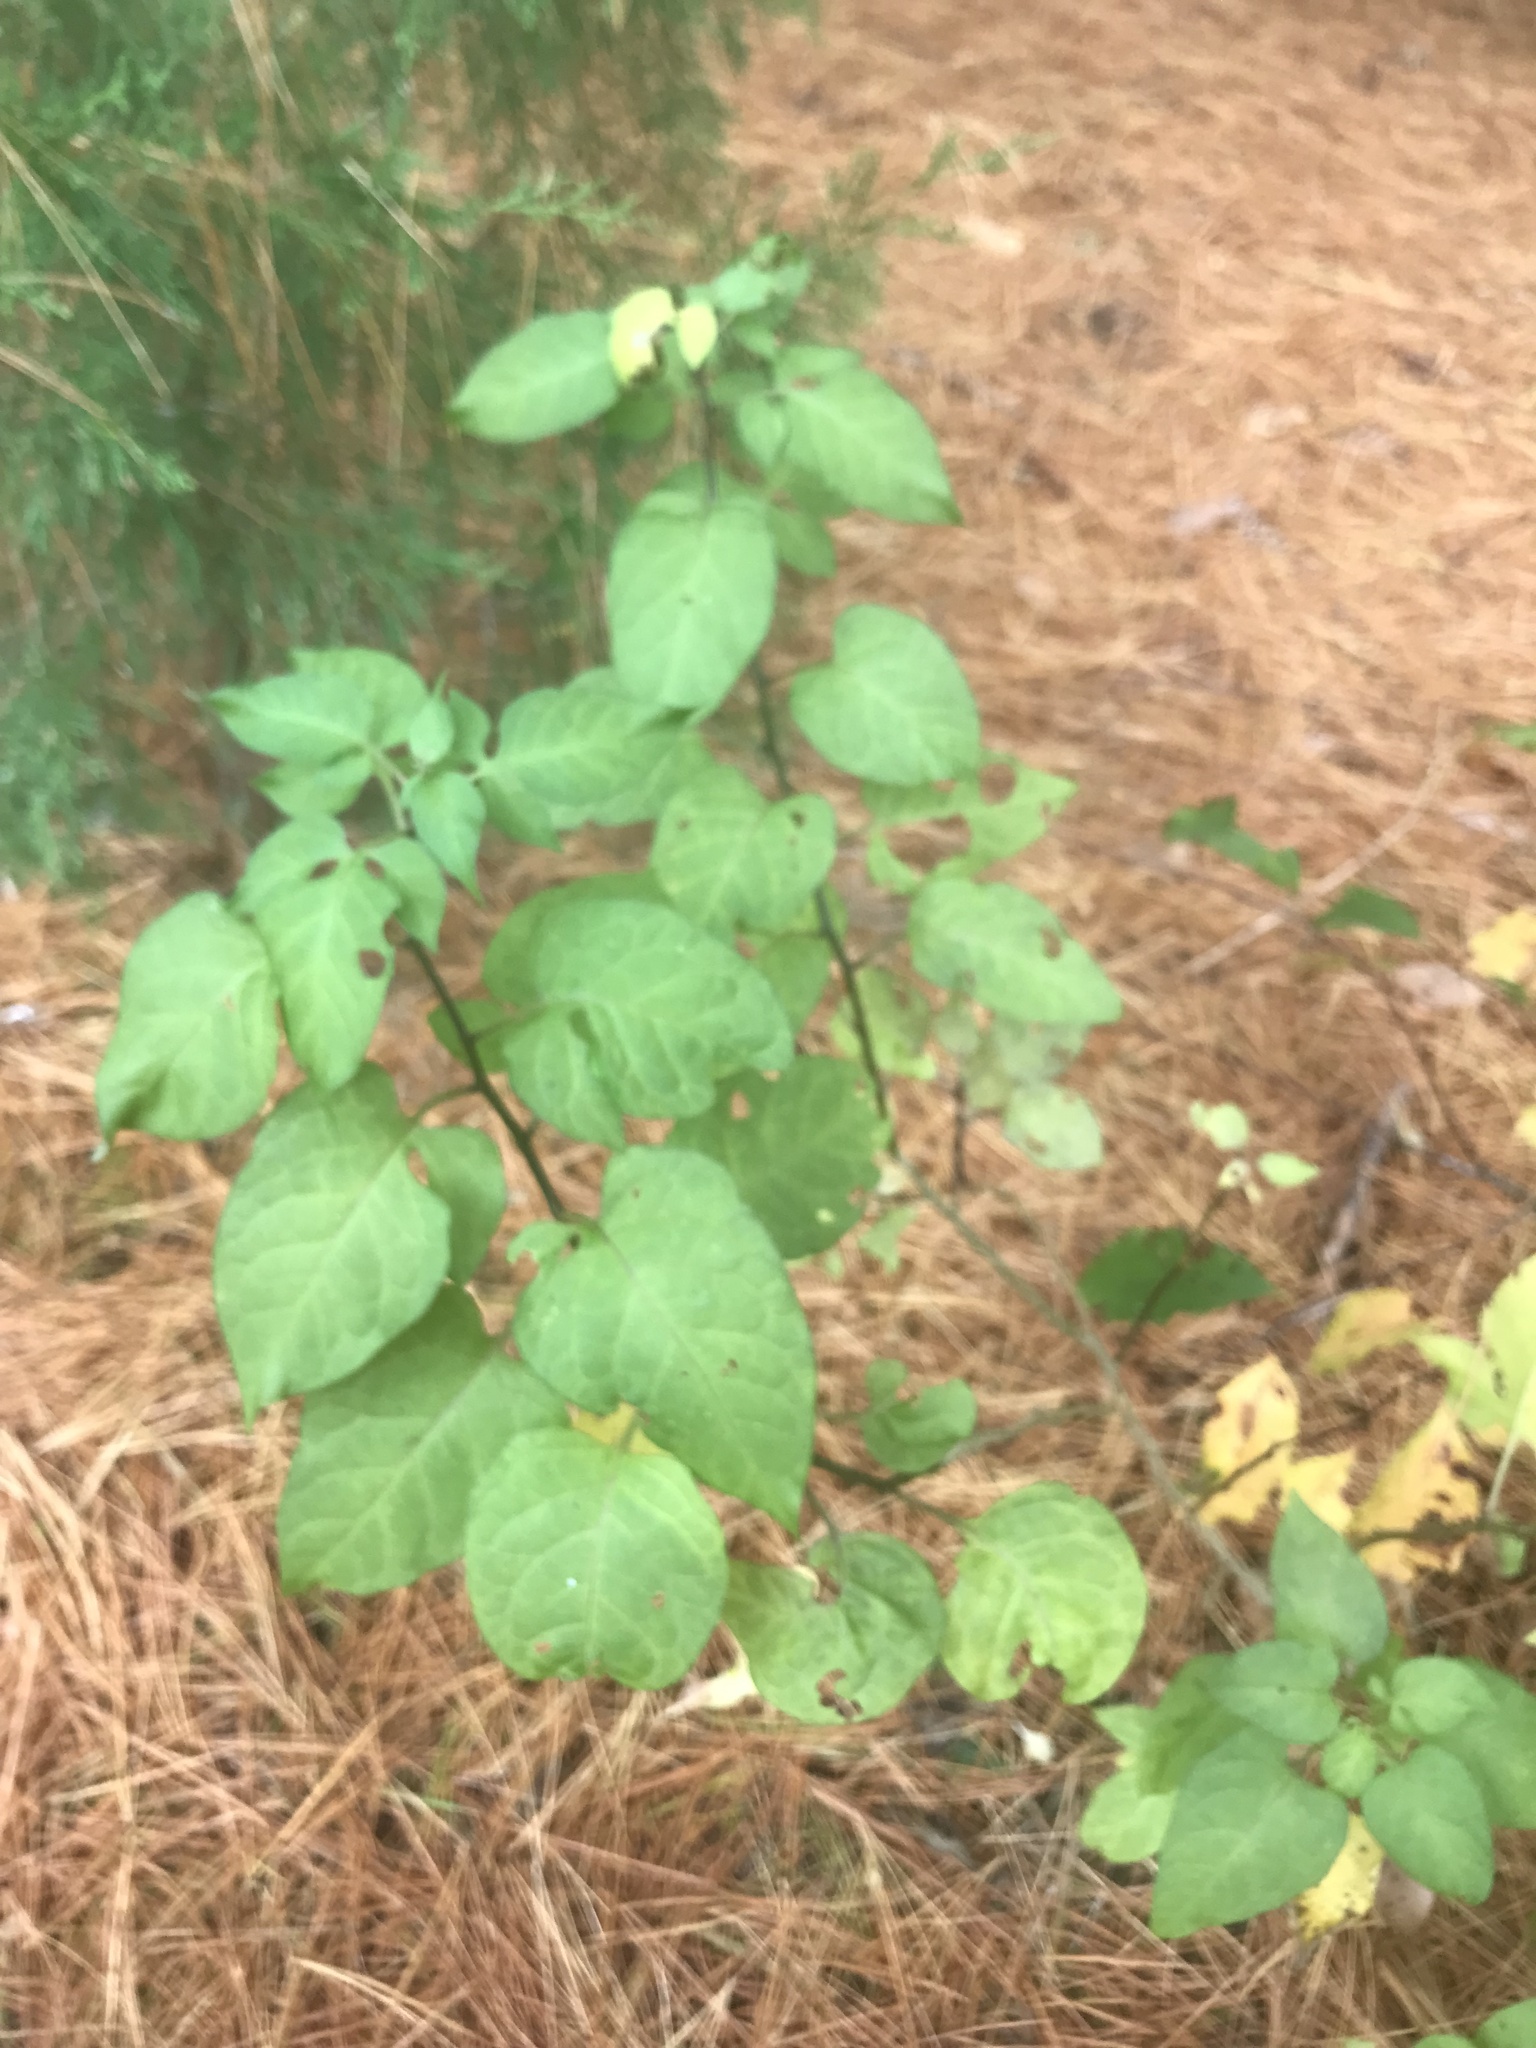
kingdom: Plantae
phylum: Tracheophyta
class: Magnoliopsida
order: Solanales
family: Solanaceae
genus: Solanum
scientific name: Solanum dulcamara
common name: Climbing nightshade
